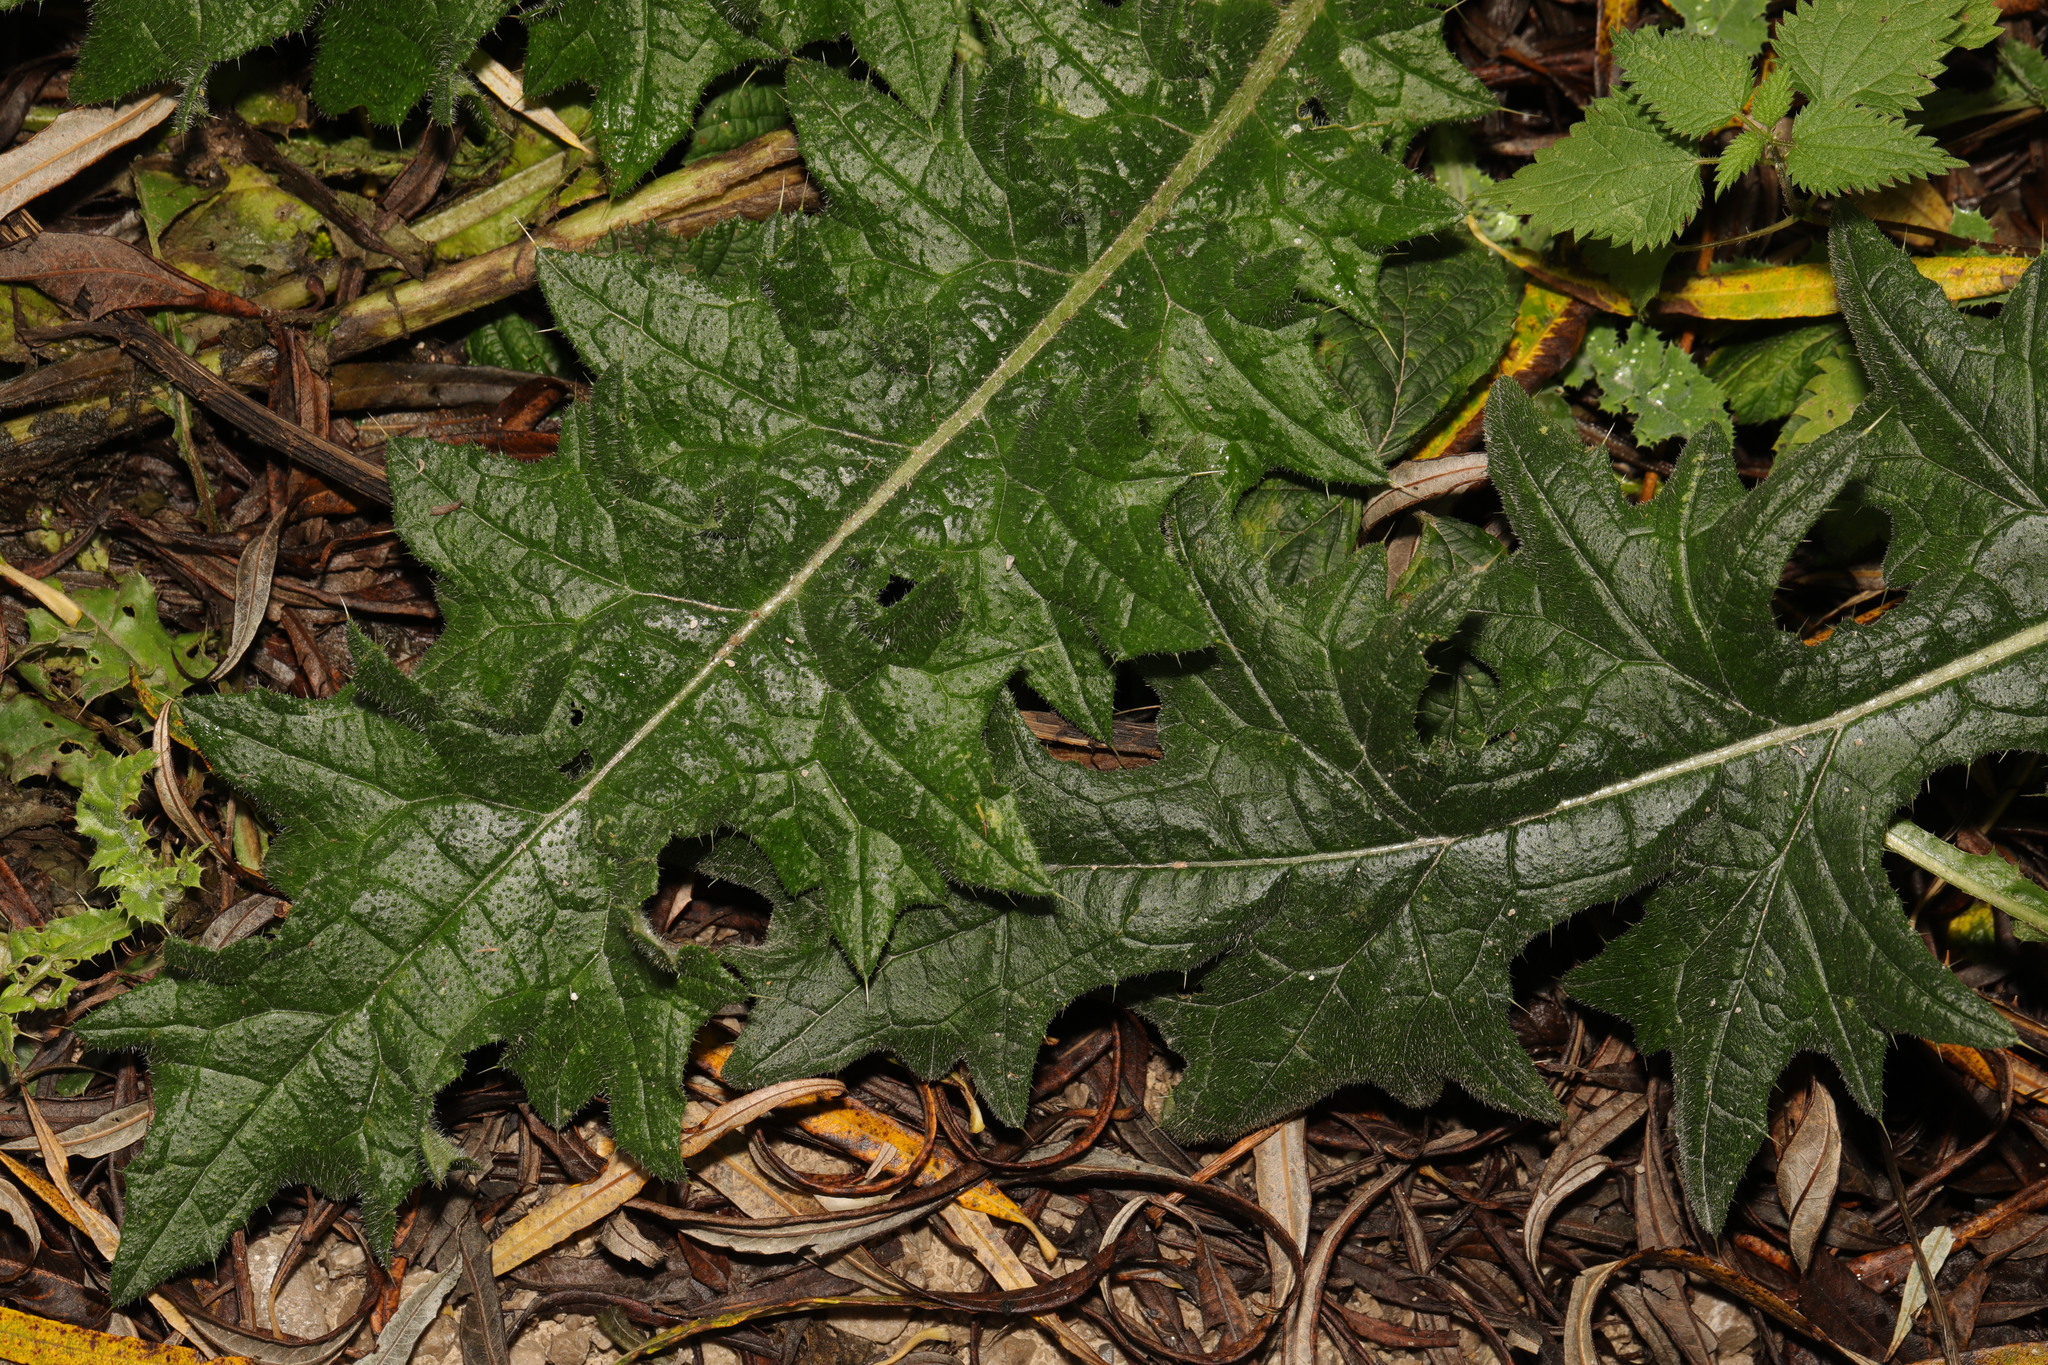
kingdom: Plantae
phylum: Tracheophyta
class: Magnoliopsida
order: Asterales
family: Asteraceae
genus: Cirsium
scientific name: Cirsium vulgare
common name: Bull thistle
